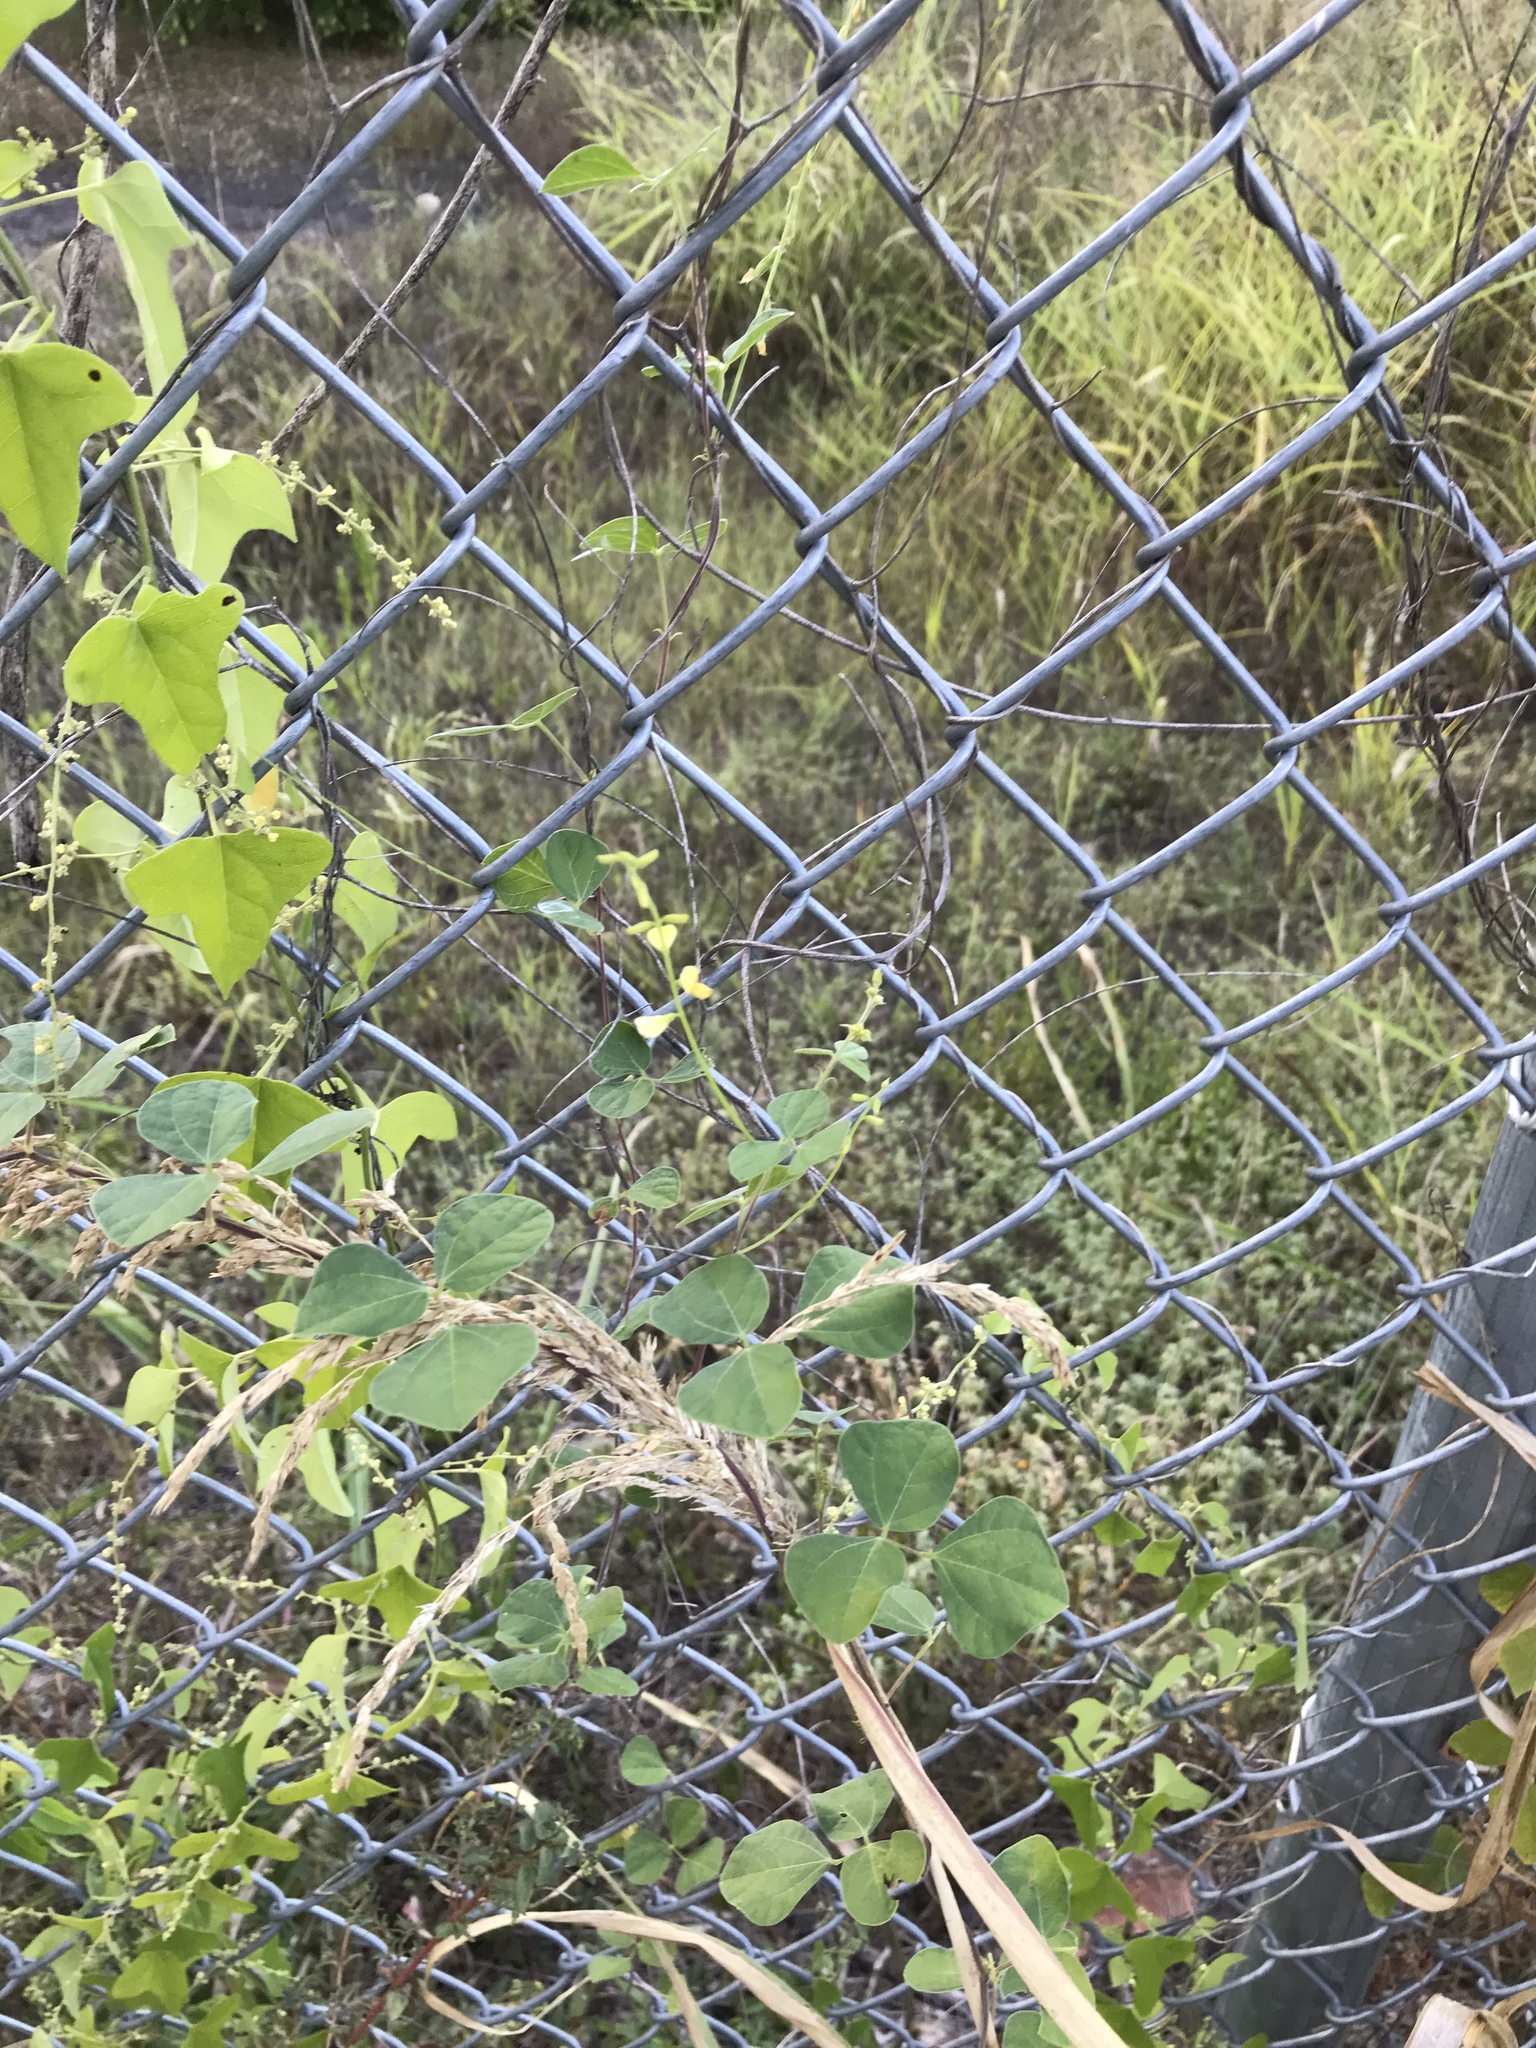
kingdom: Plantae
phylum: Tracheophyta
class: Magnoliopsida
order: Fabales
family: Fabaceae
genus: Rhynchosia
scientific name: Rhynchosia minima
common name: Least snoutbean
